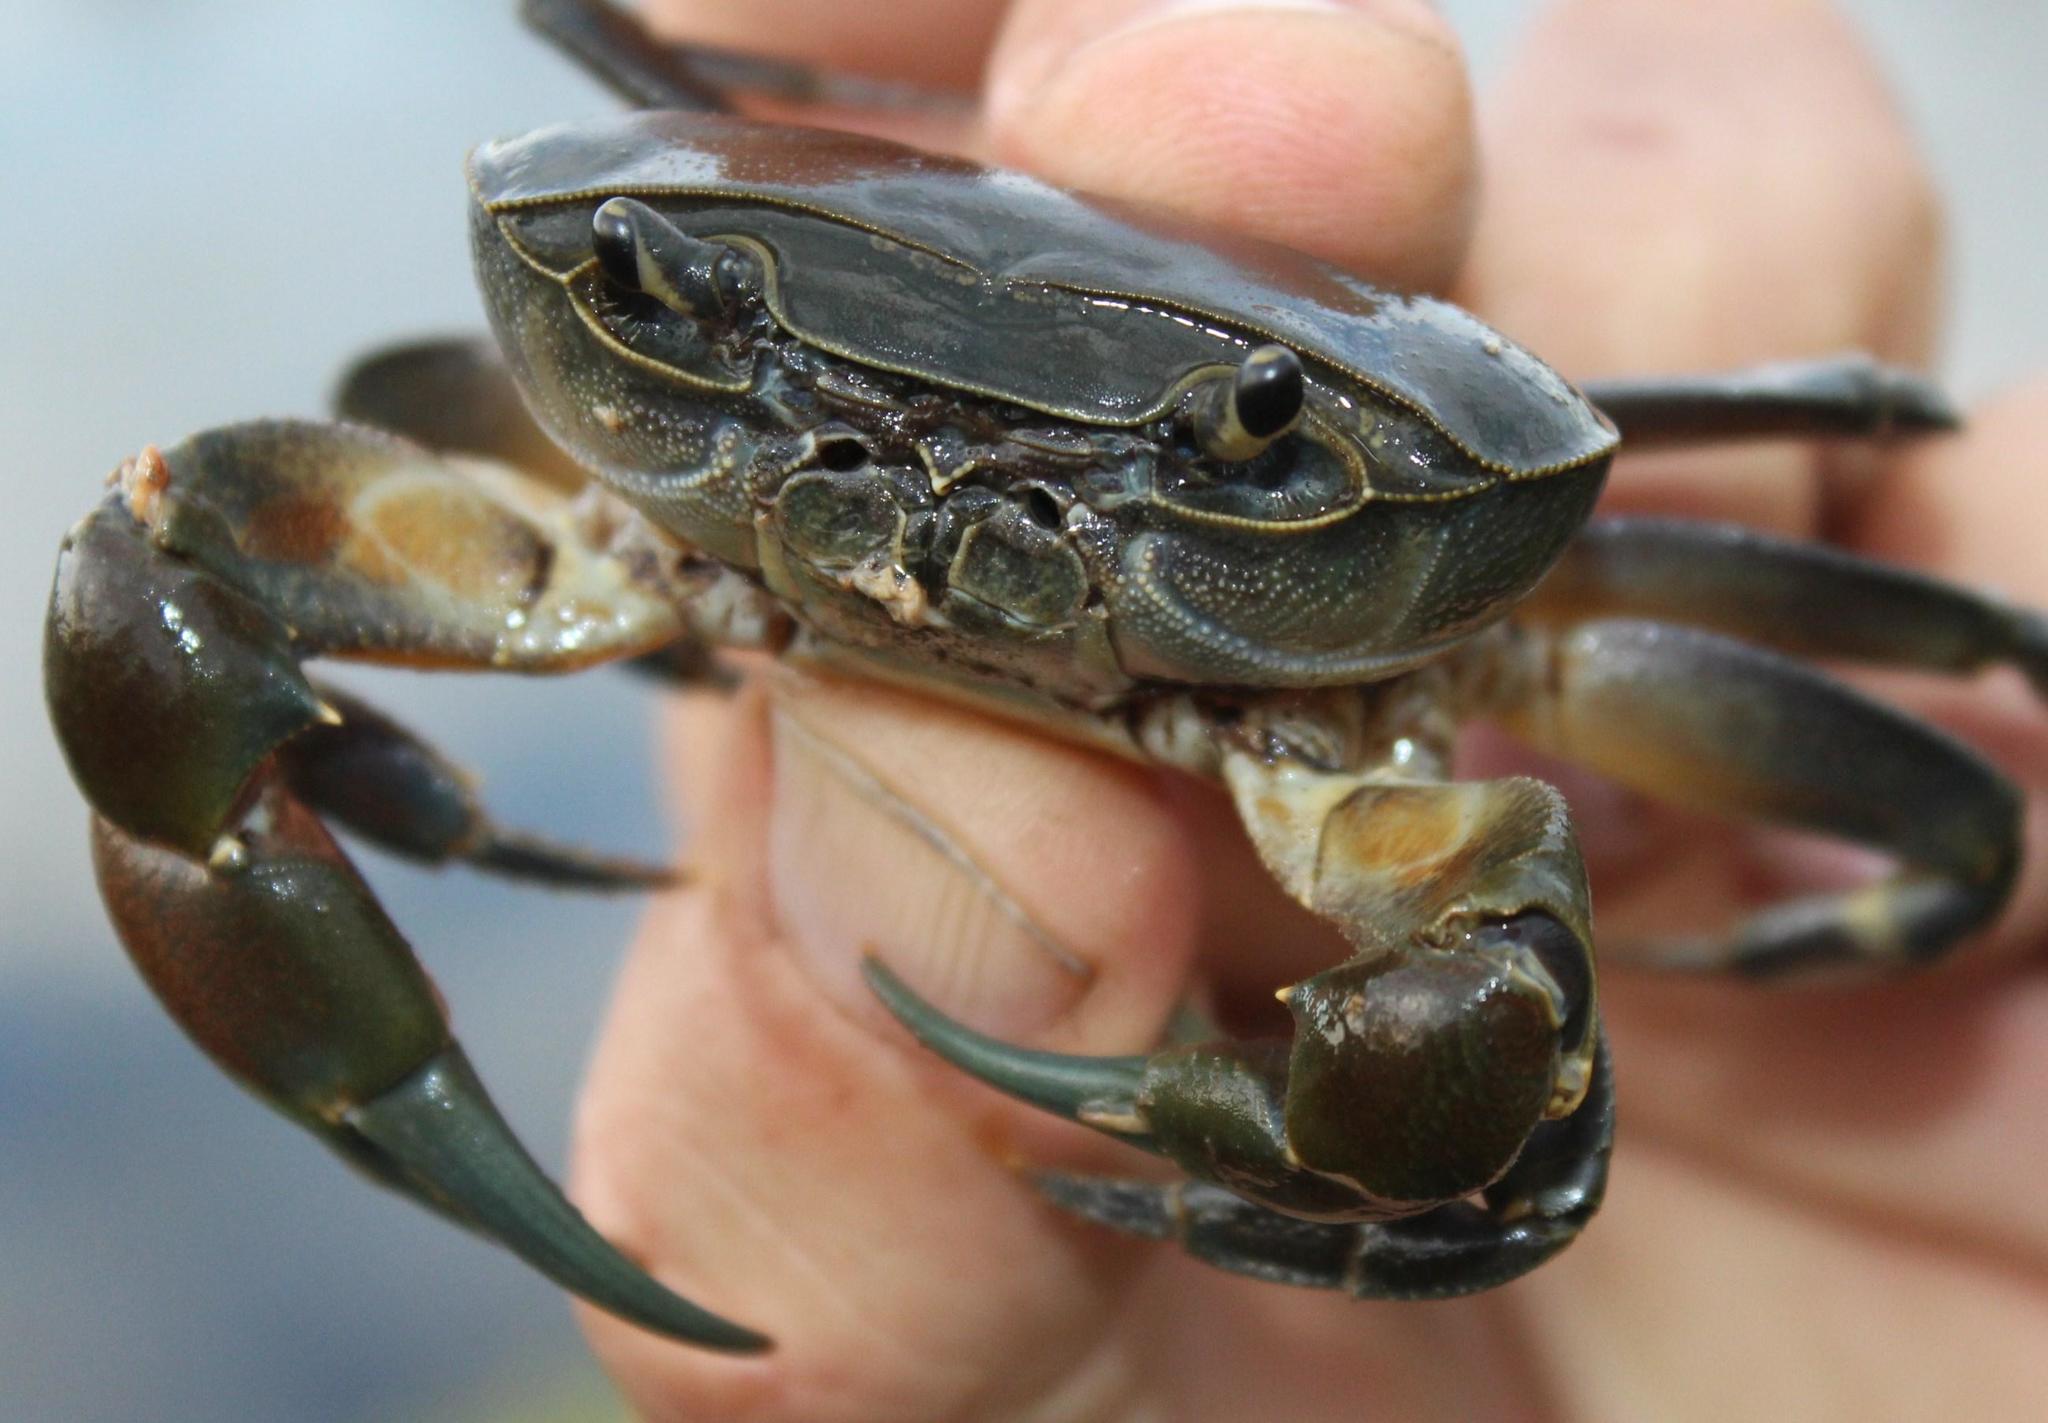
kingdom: Animalia
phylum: Arthropoda
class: Malacostraca
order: Decapoda
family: Potamonautidae
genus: Potamonautes
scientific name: Potamonautes barnardi
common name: Barnard's crab
